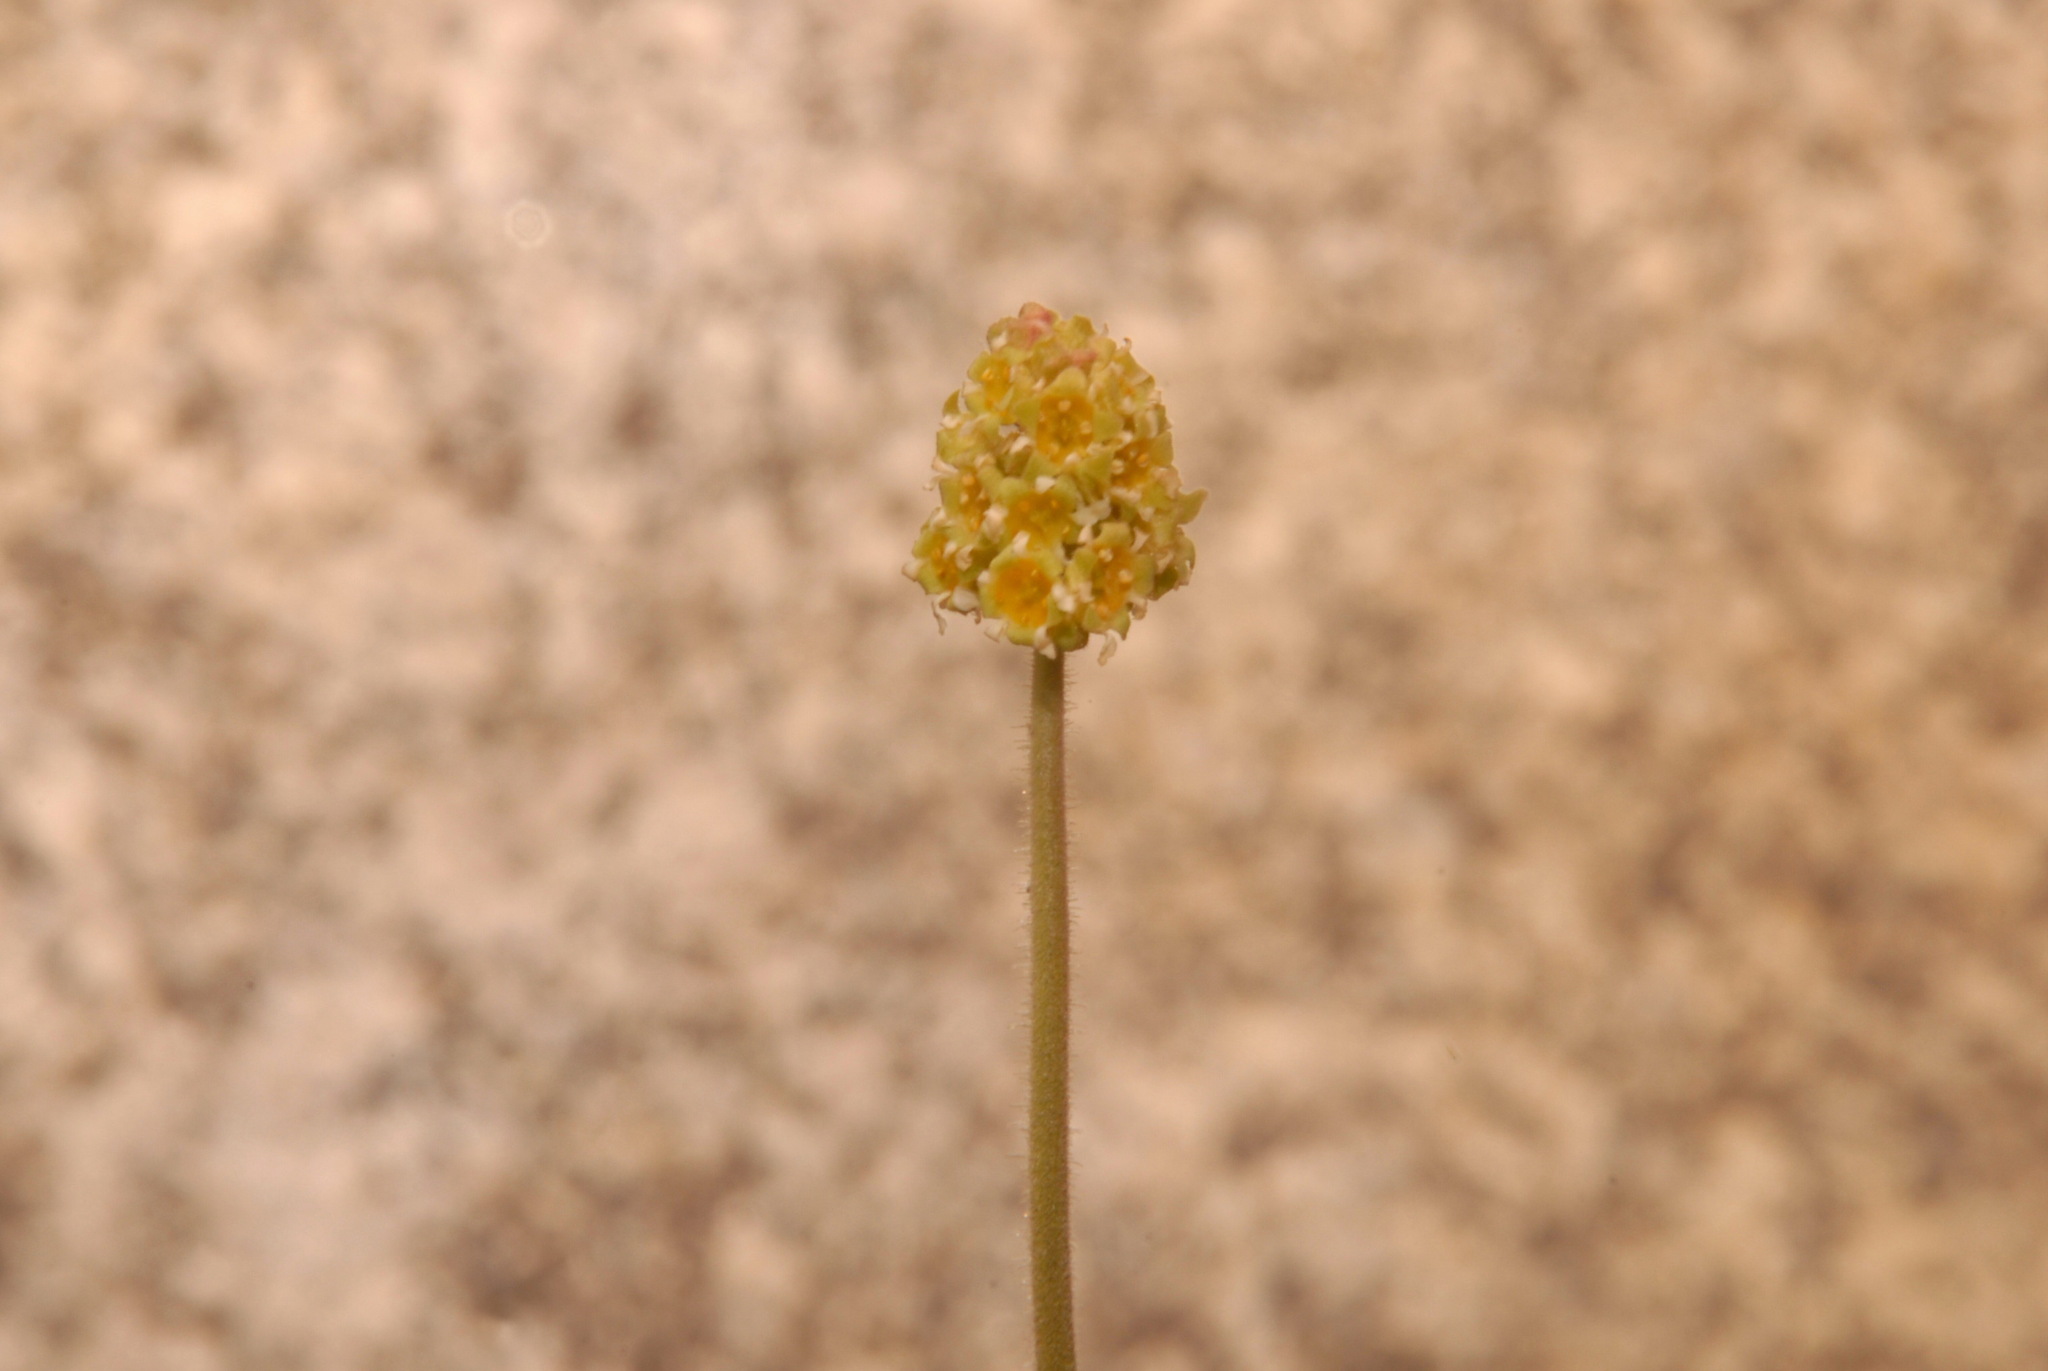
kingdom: Plantae
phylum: Tracheophyta
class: Magnoliopsida
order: Saxifragales
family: Saxifragaceae
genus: Heuchera
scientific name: Heuchera parvifolia
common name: Common alumroot
